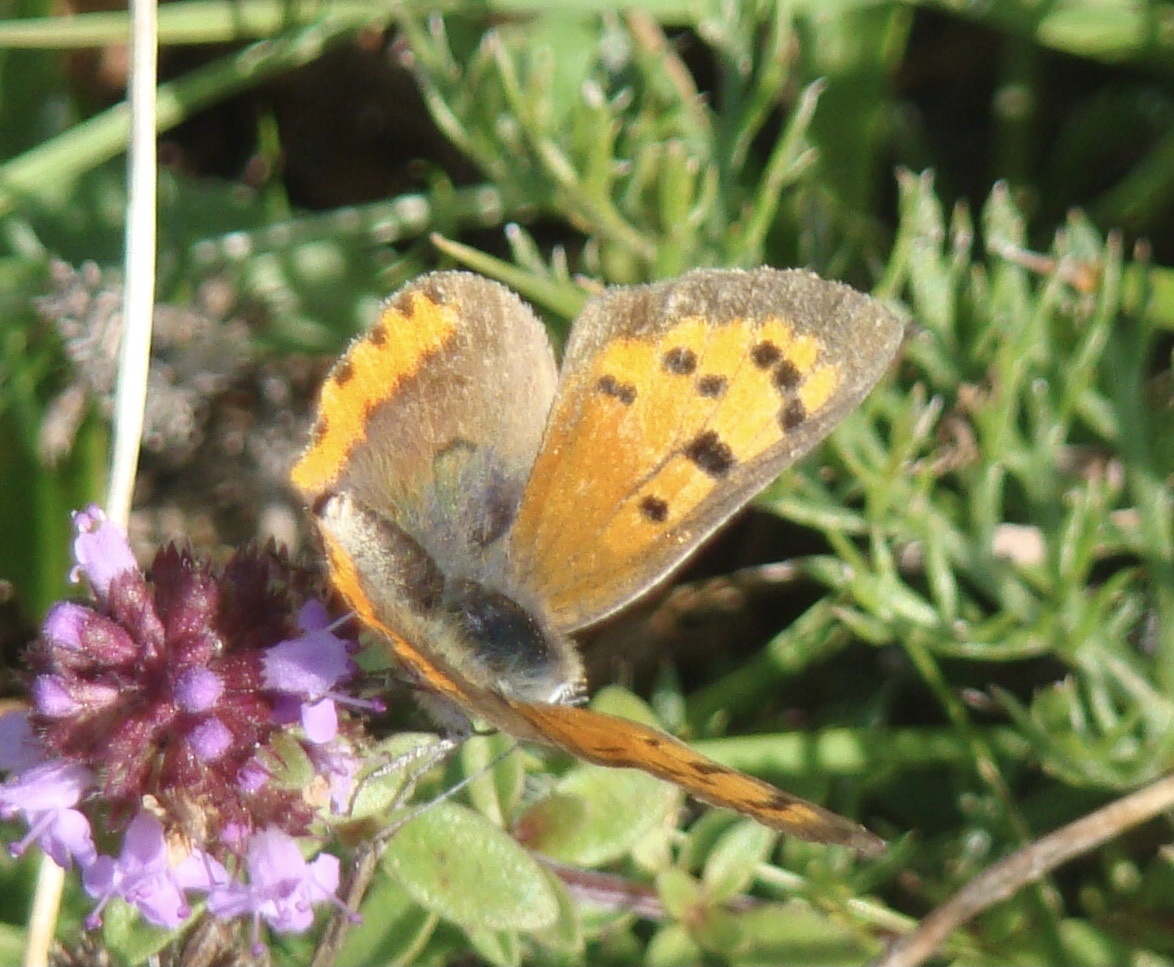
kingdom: Animalia
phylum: Arthropoda
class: Insecta
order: Lepidoptera
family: Lycaenidae
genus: Lycaena
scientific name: Lycaena phlaeas
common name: Small copper
